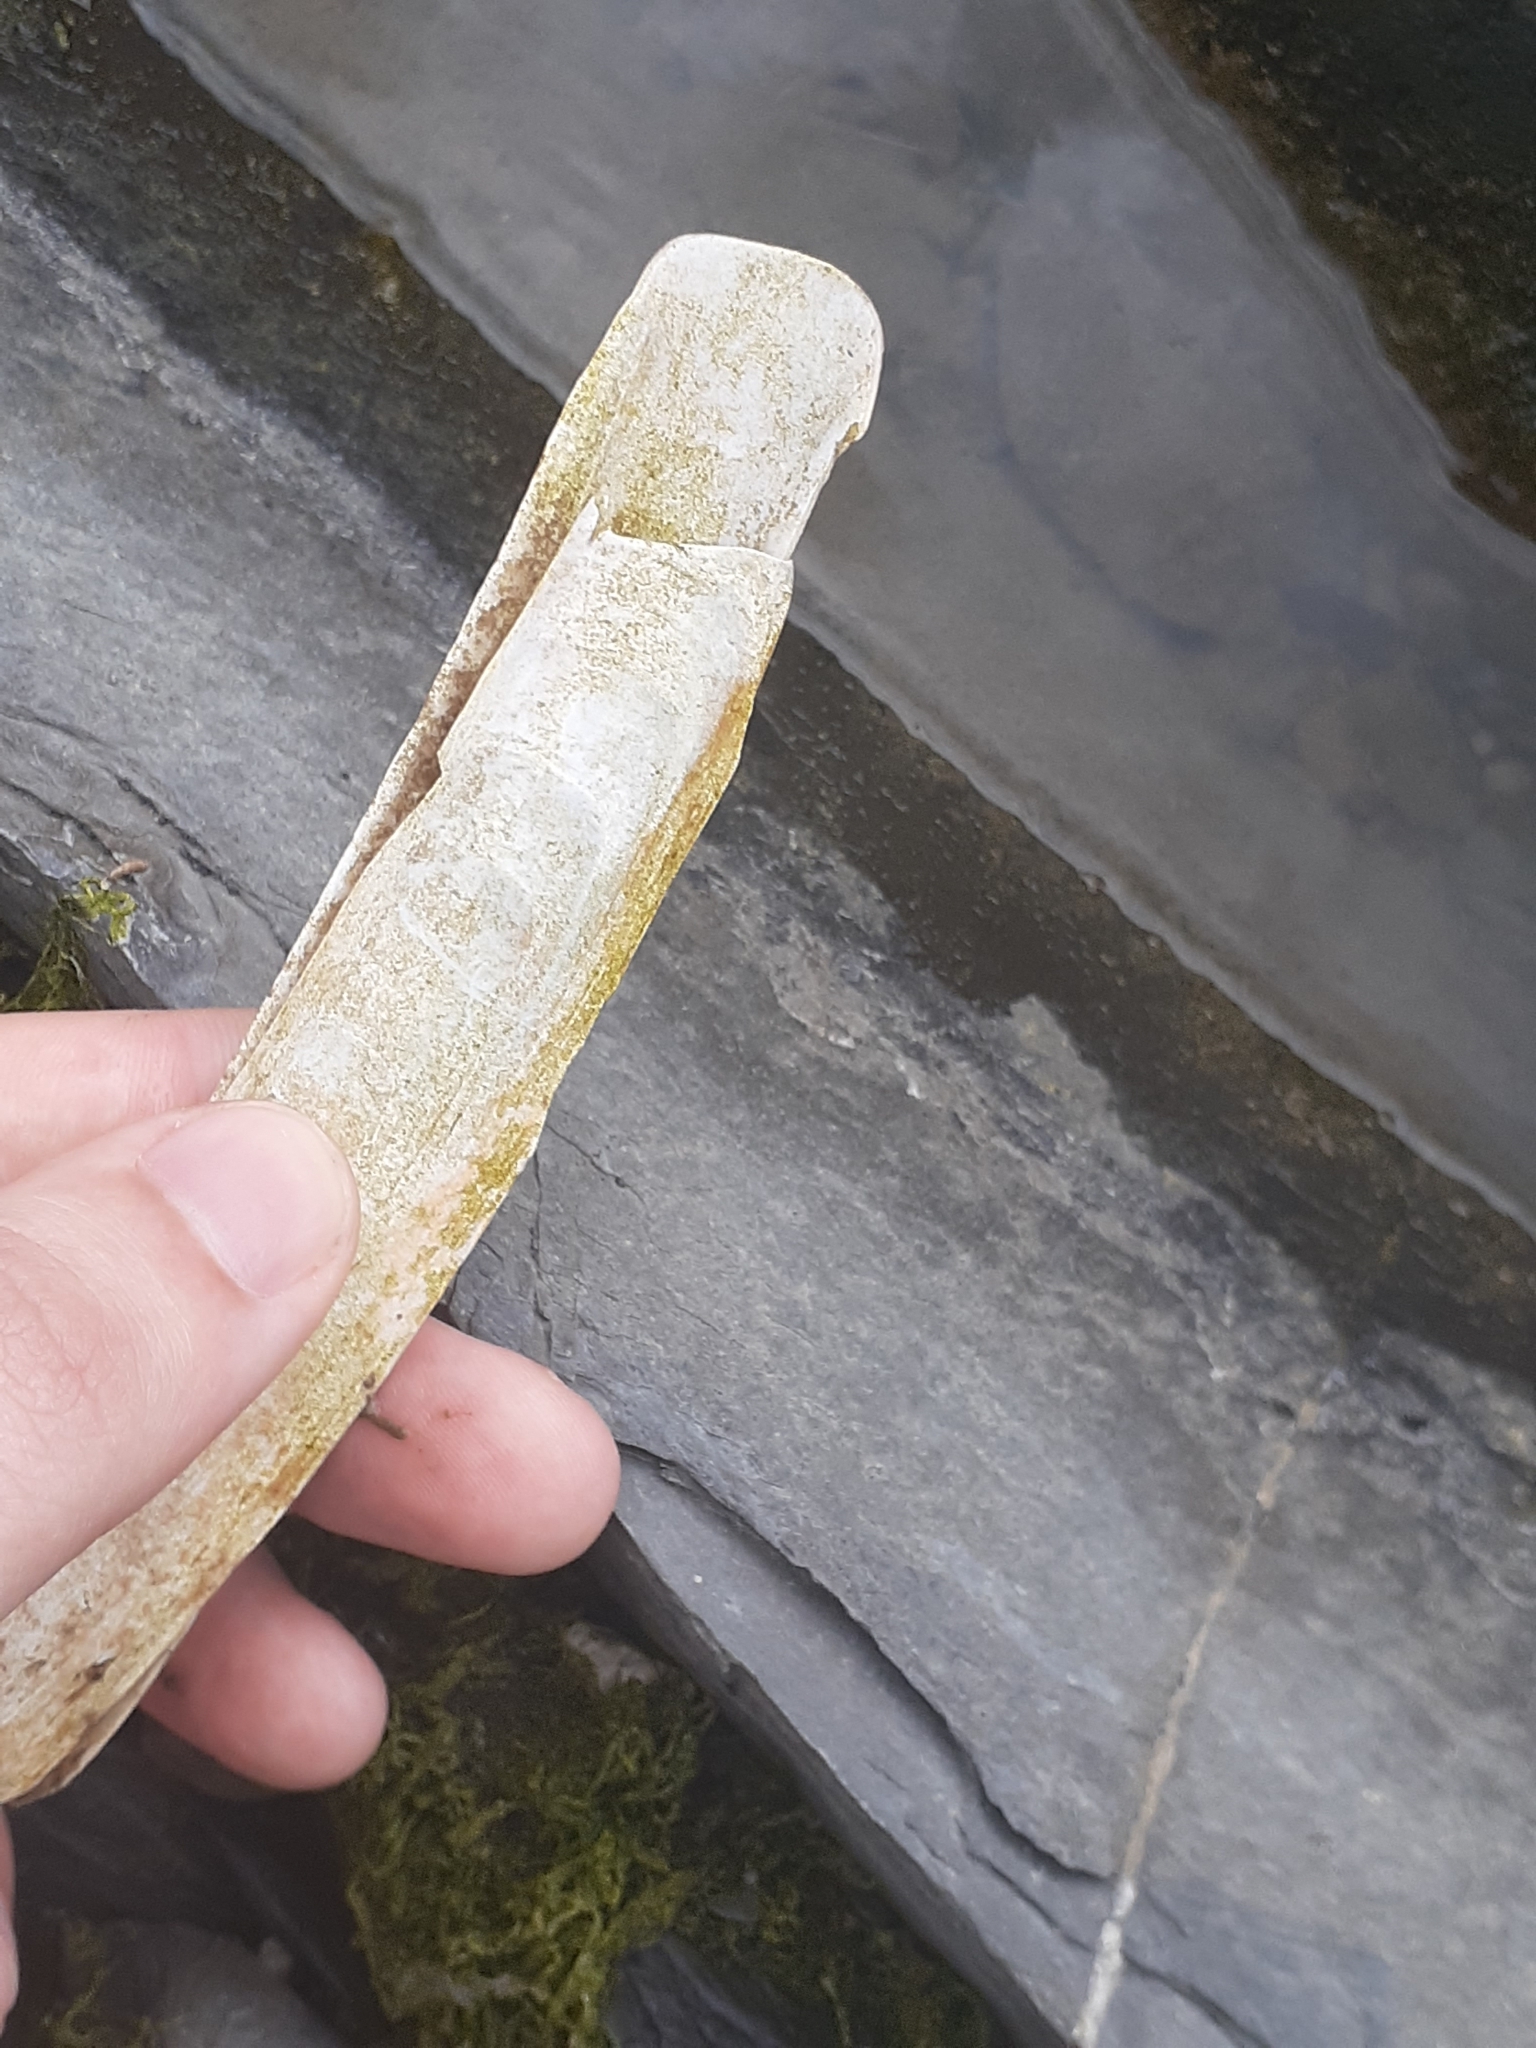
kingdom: Animalia
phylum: Mollusca
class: Bivalvia
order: Adapedonta
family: Pharidae
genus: Ensis
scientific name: Ensis leei
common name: American jack knife clam
